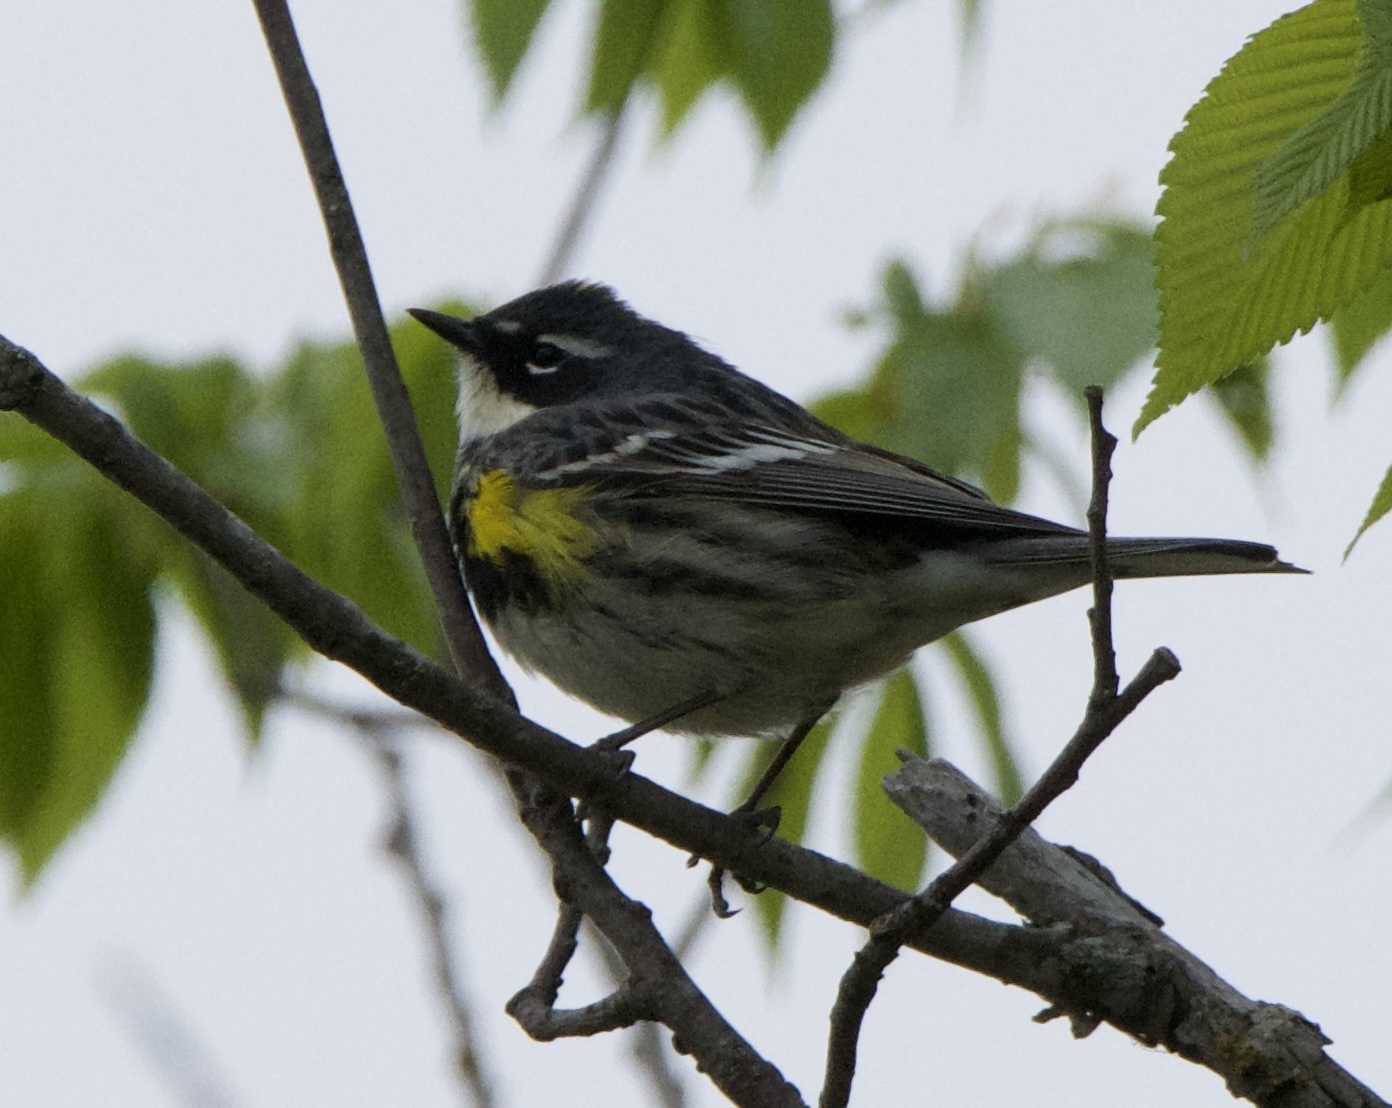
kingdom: Animalia
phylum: Chordata
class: Aves
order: Passeriformes
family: Parulidae
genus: Setophaga
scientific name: Setophaga coronata
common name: Myrtle warbler
